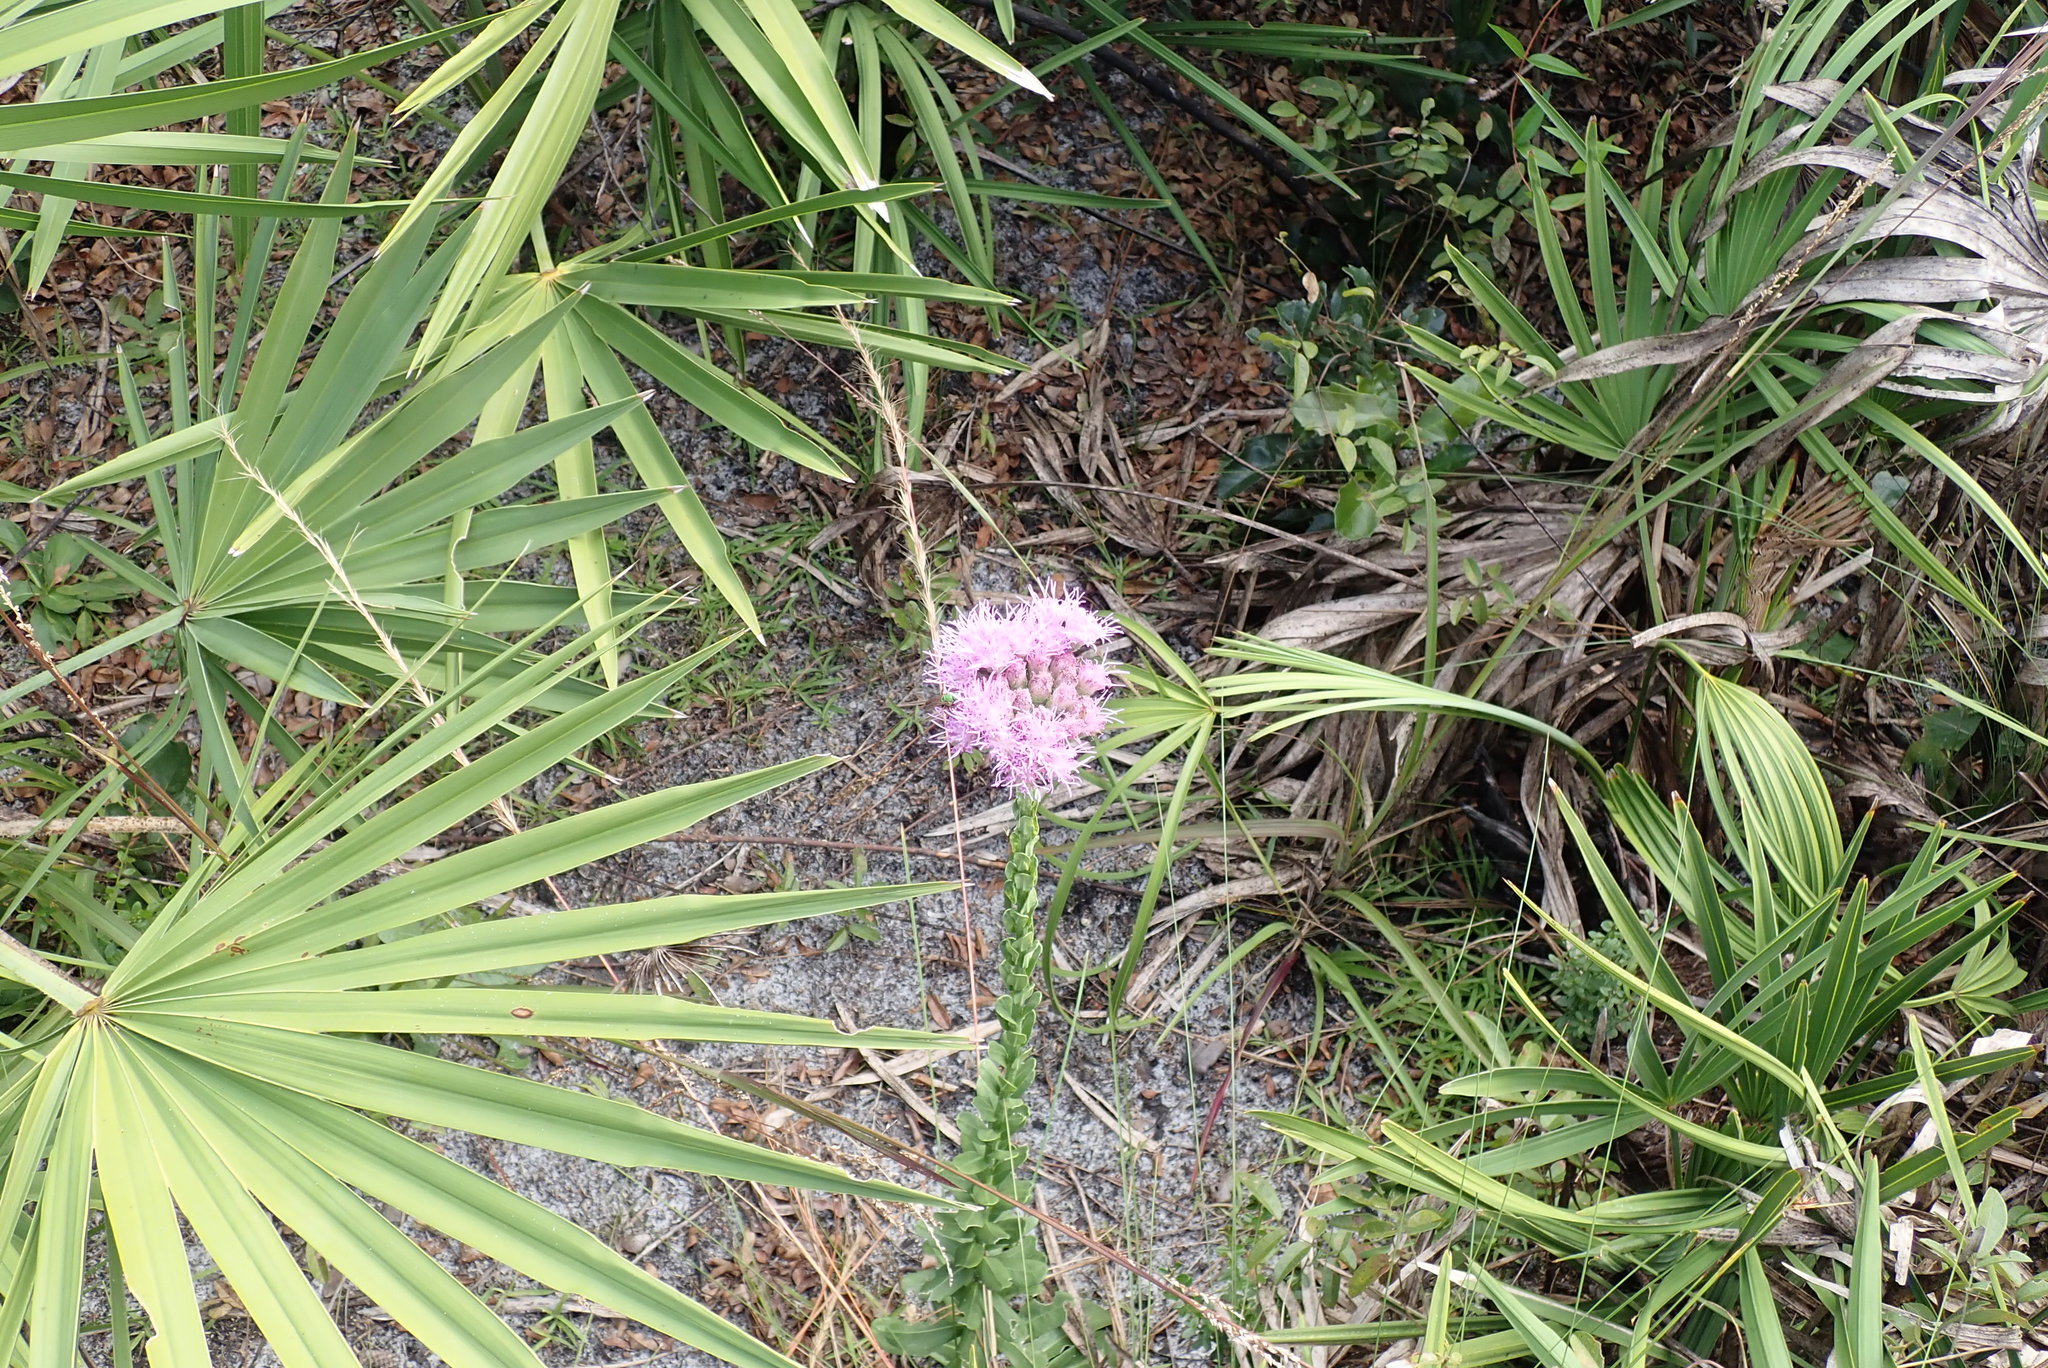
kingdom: Plantae
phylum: Tracheophyta
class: Magnoliopsida
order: Asterales
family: Asteraceae
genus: Carphephorus
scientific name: Carphephorus corymbosus
